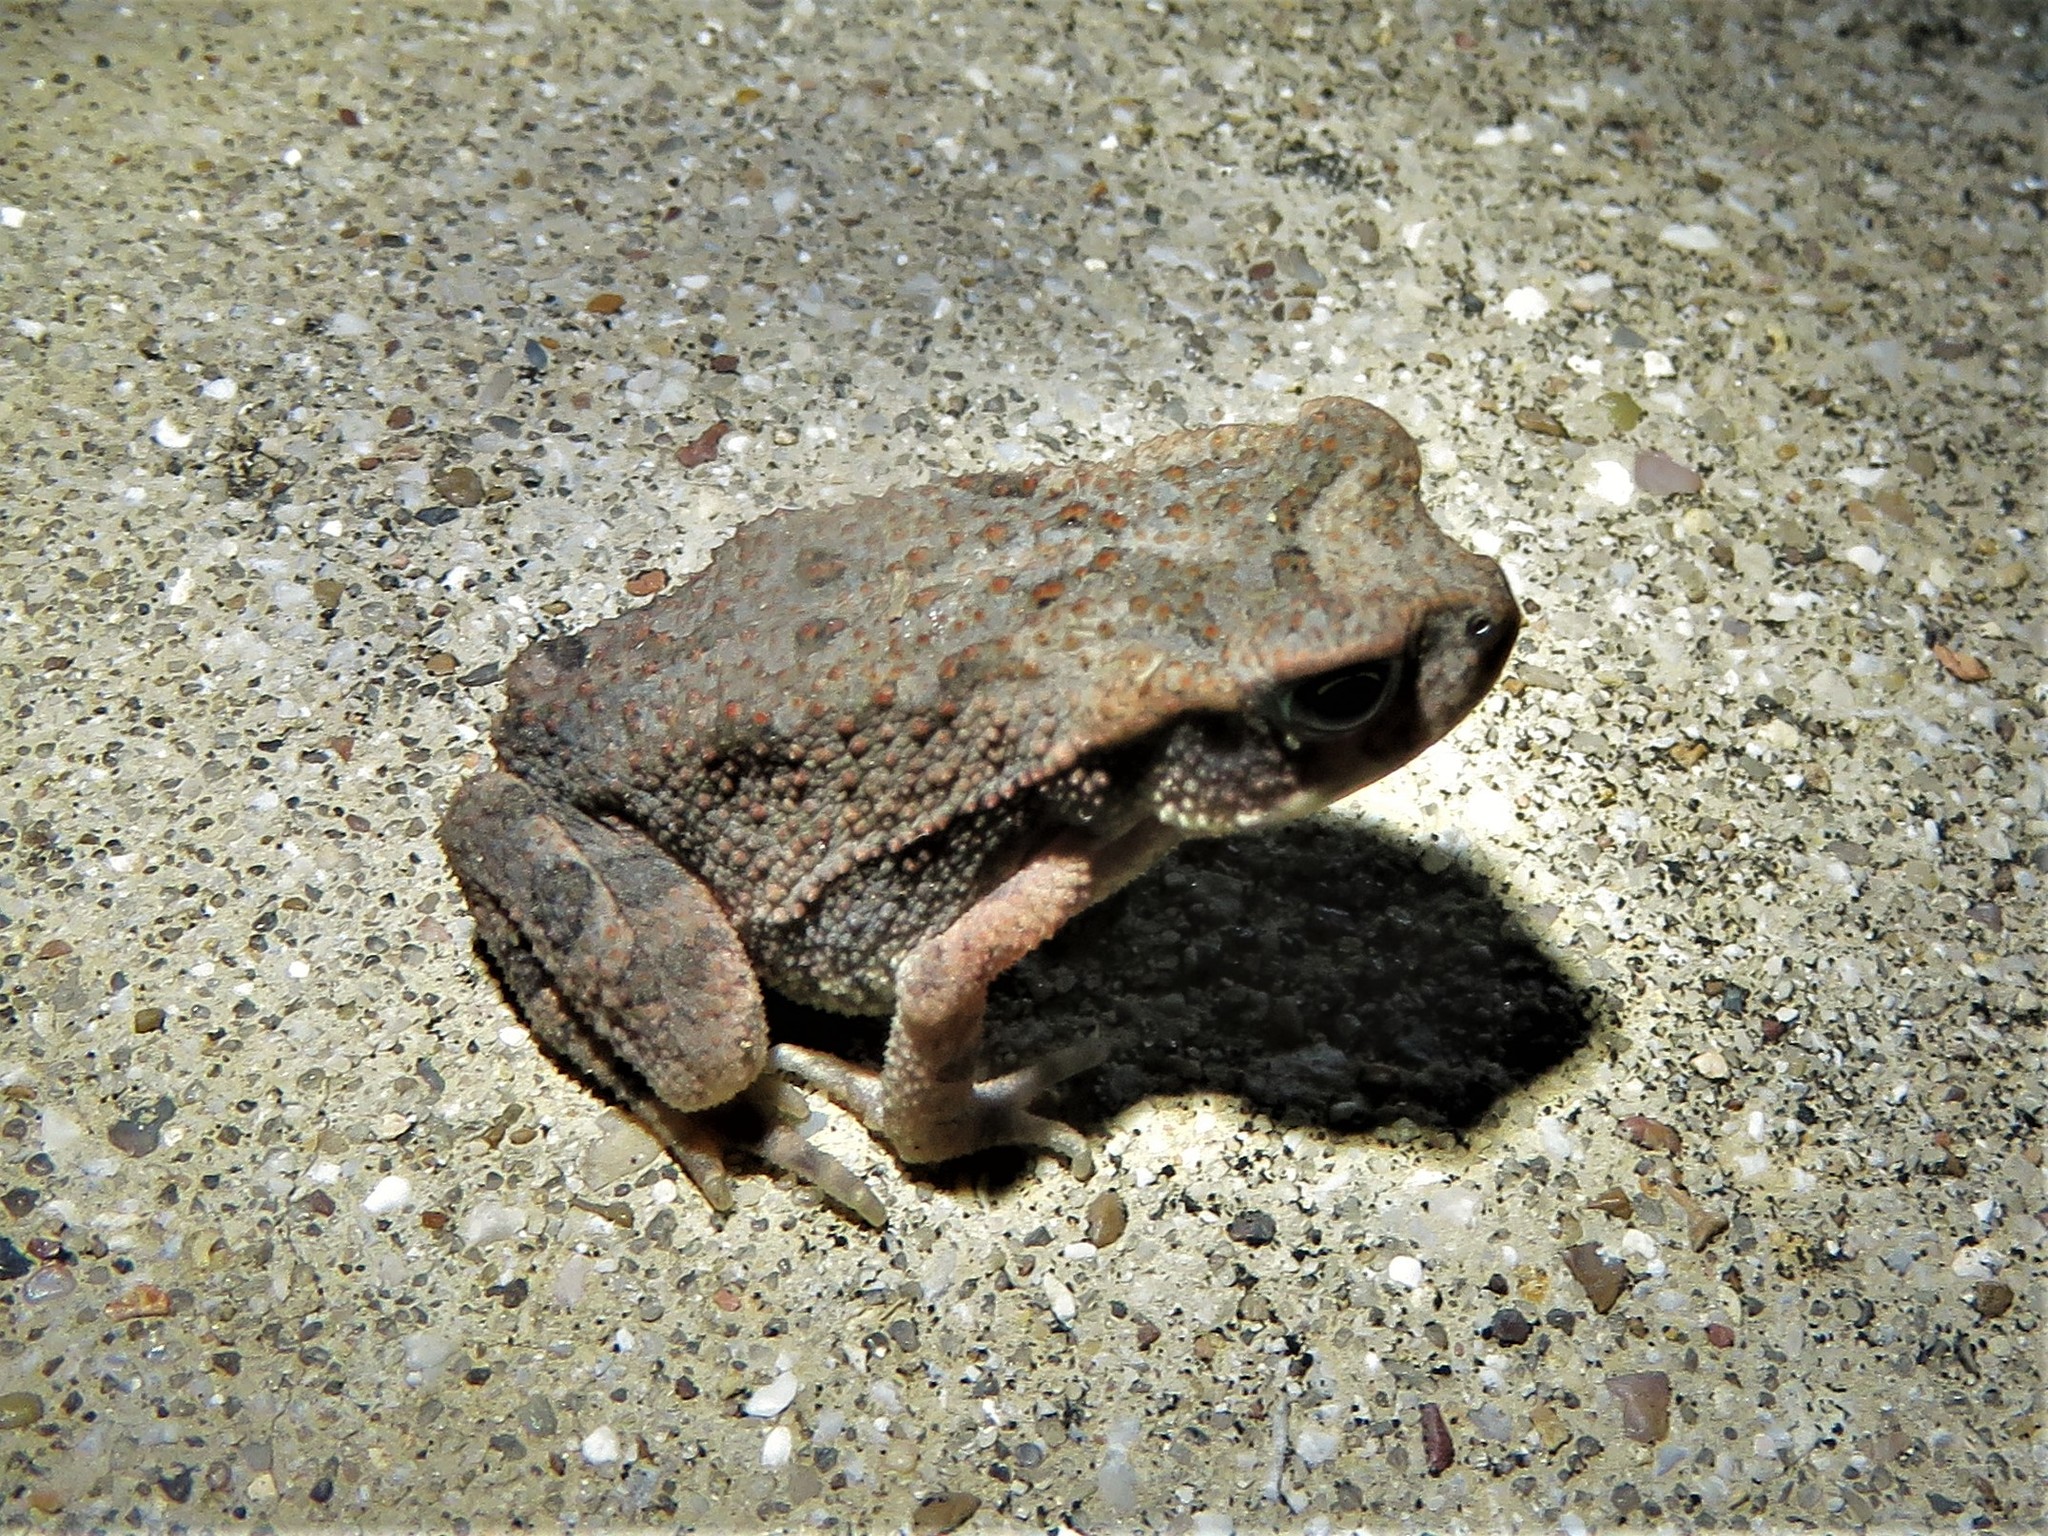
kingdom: Animalia
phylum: Chordata
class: Amphibia
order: Anura
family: Bufonidae
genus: Incilius
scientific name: Incilius nebulifer
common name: Gulf coast toad
